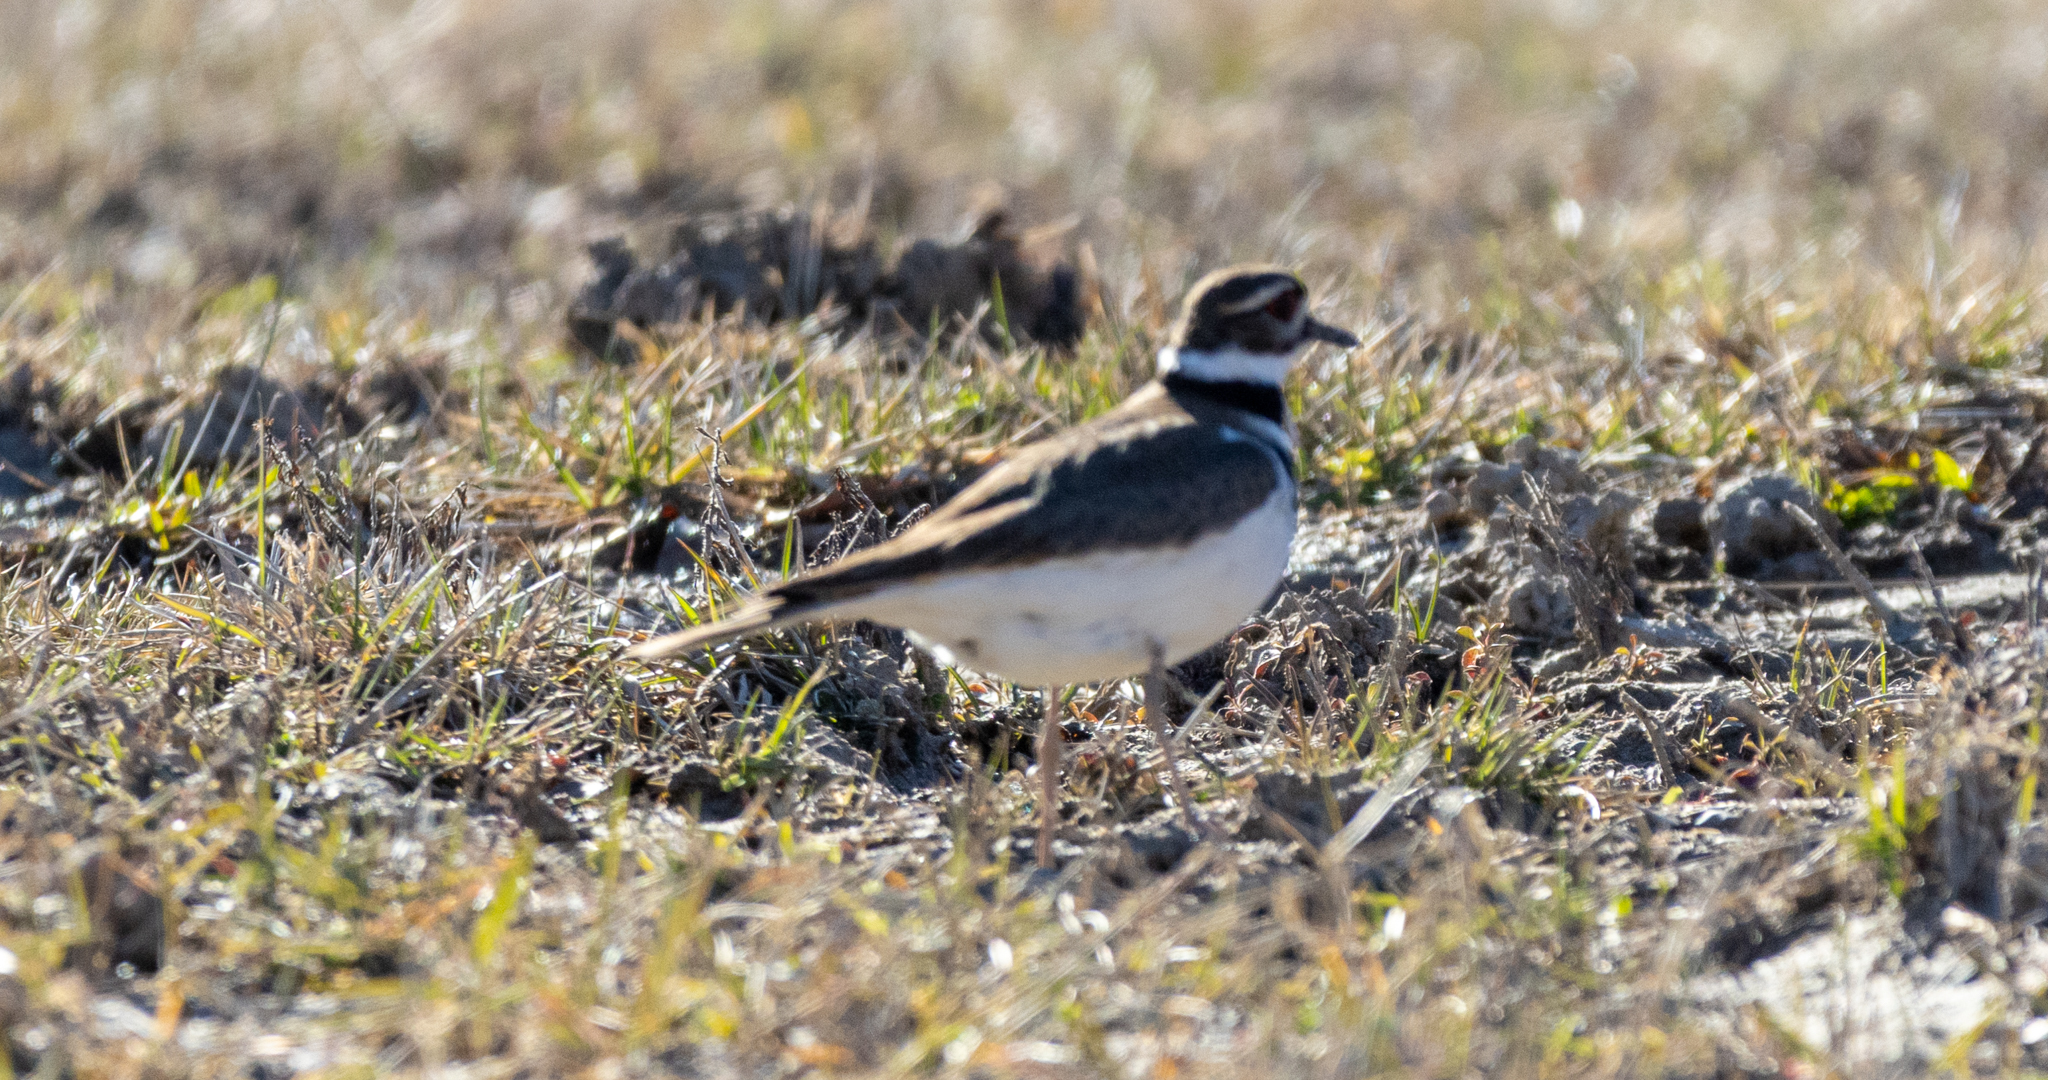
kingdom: Animalia
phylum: Chordata
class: Aves
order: Charadriiformes
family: Charadriidae
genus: Charadrius
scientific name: Charadrius vociferus
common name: Killdeer
